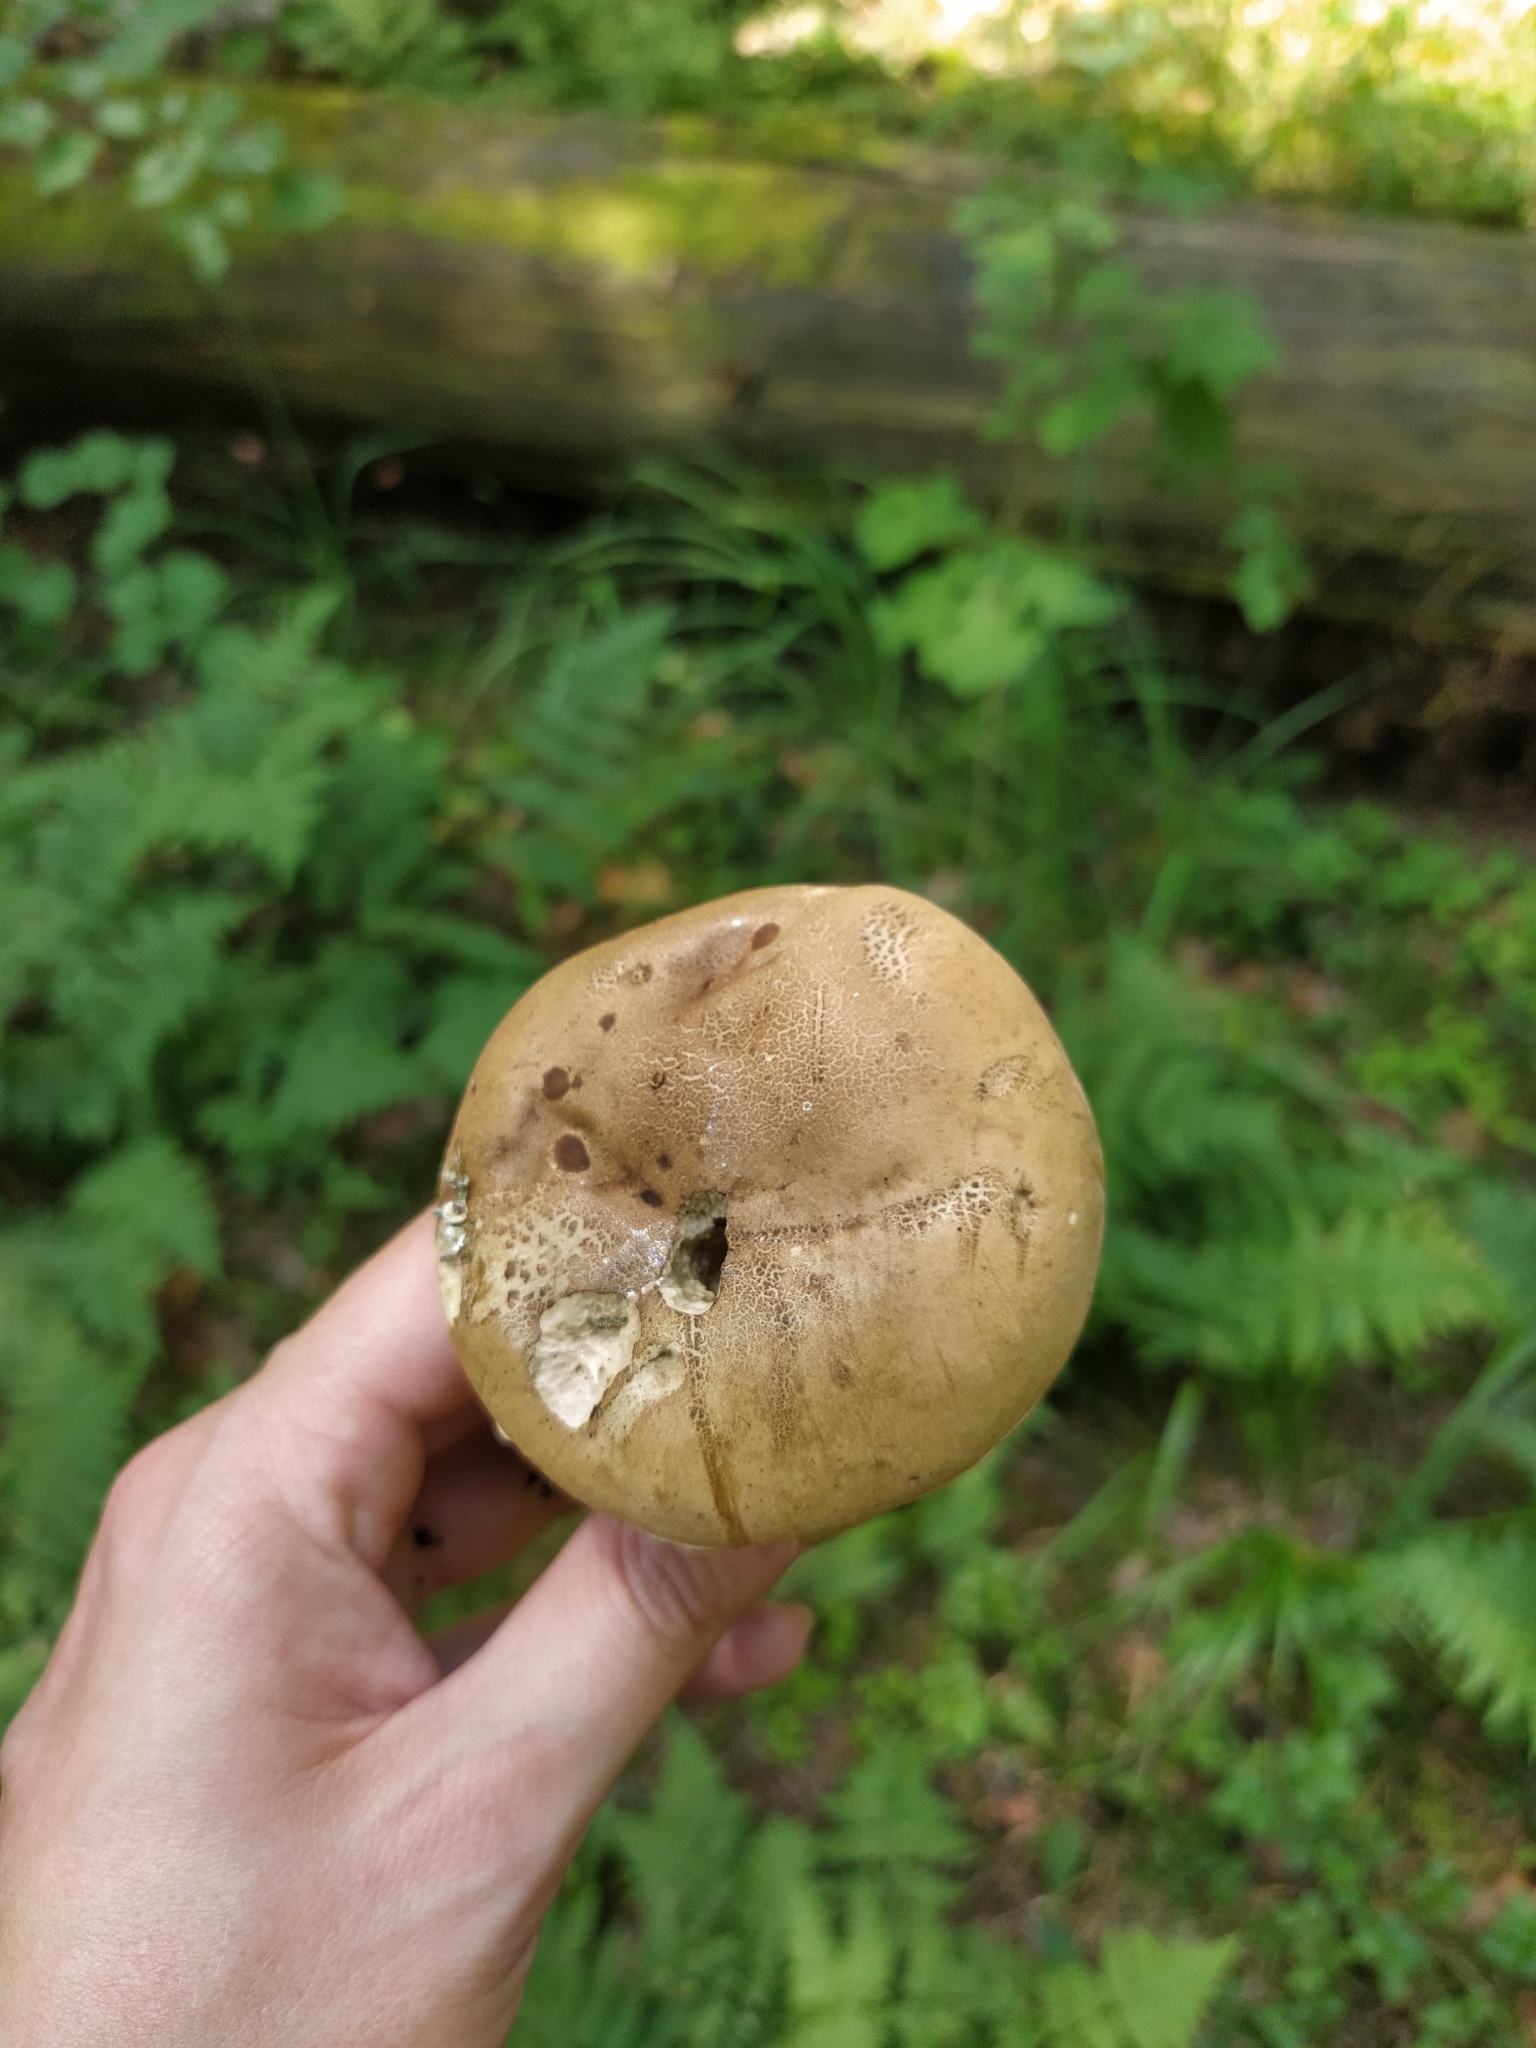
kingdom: Fungi
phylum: Basidiomycota
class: Agaricomycetes
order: Boletales
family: Boletaceae
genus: Tylopilus
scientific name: Tylopilus felleus
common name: Bitter bolete
